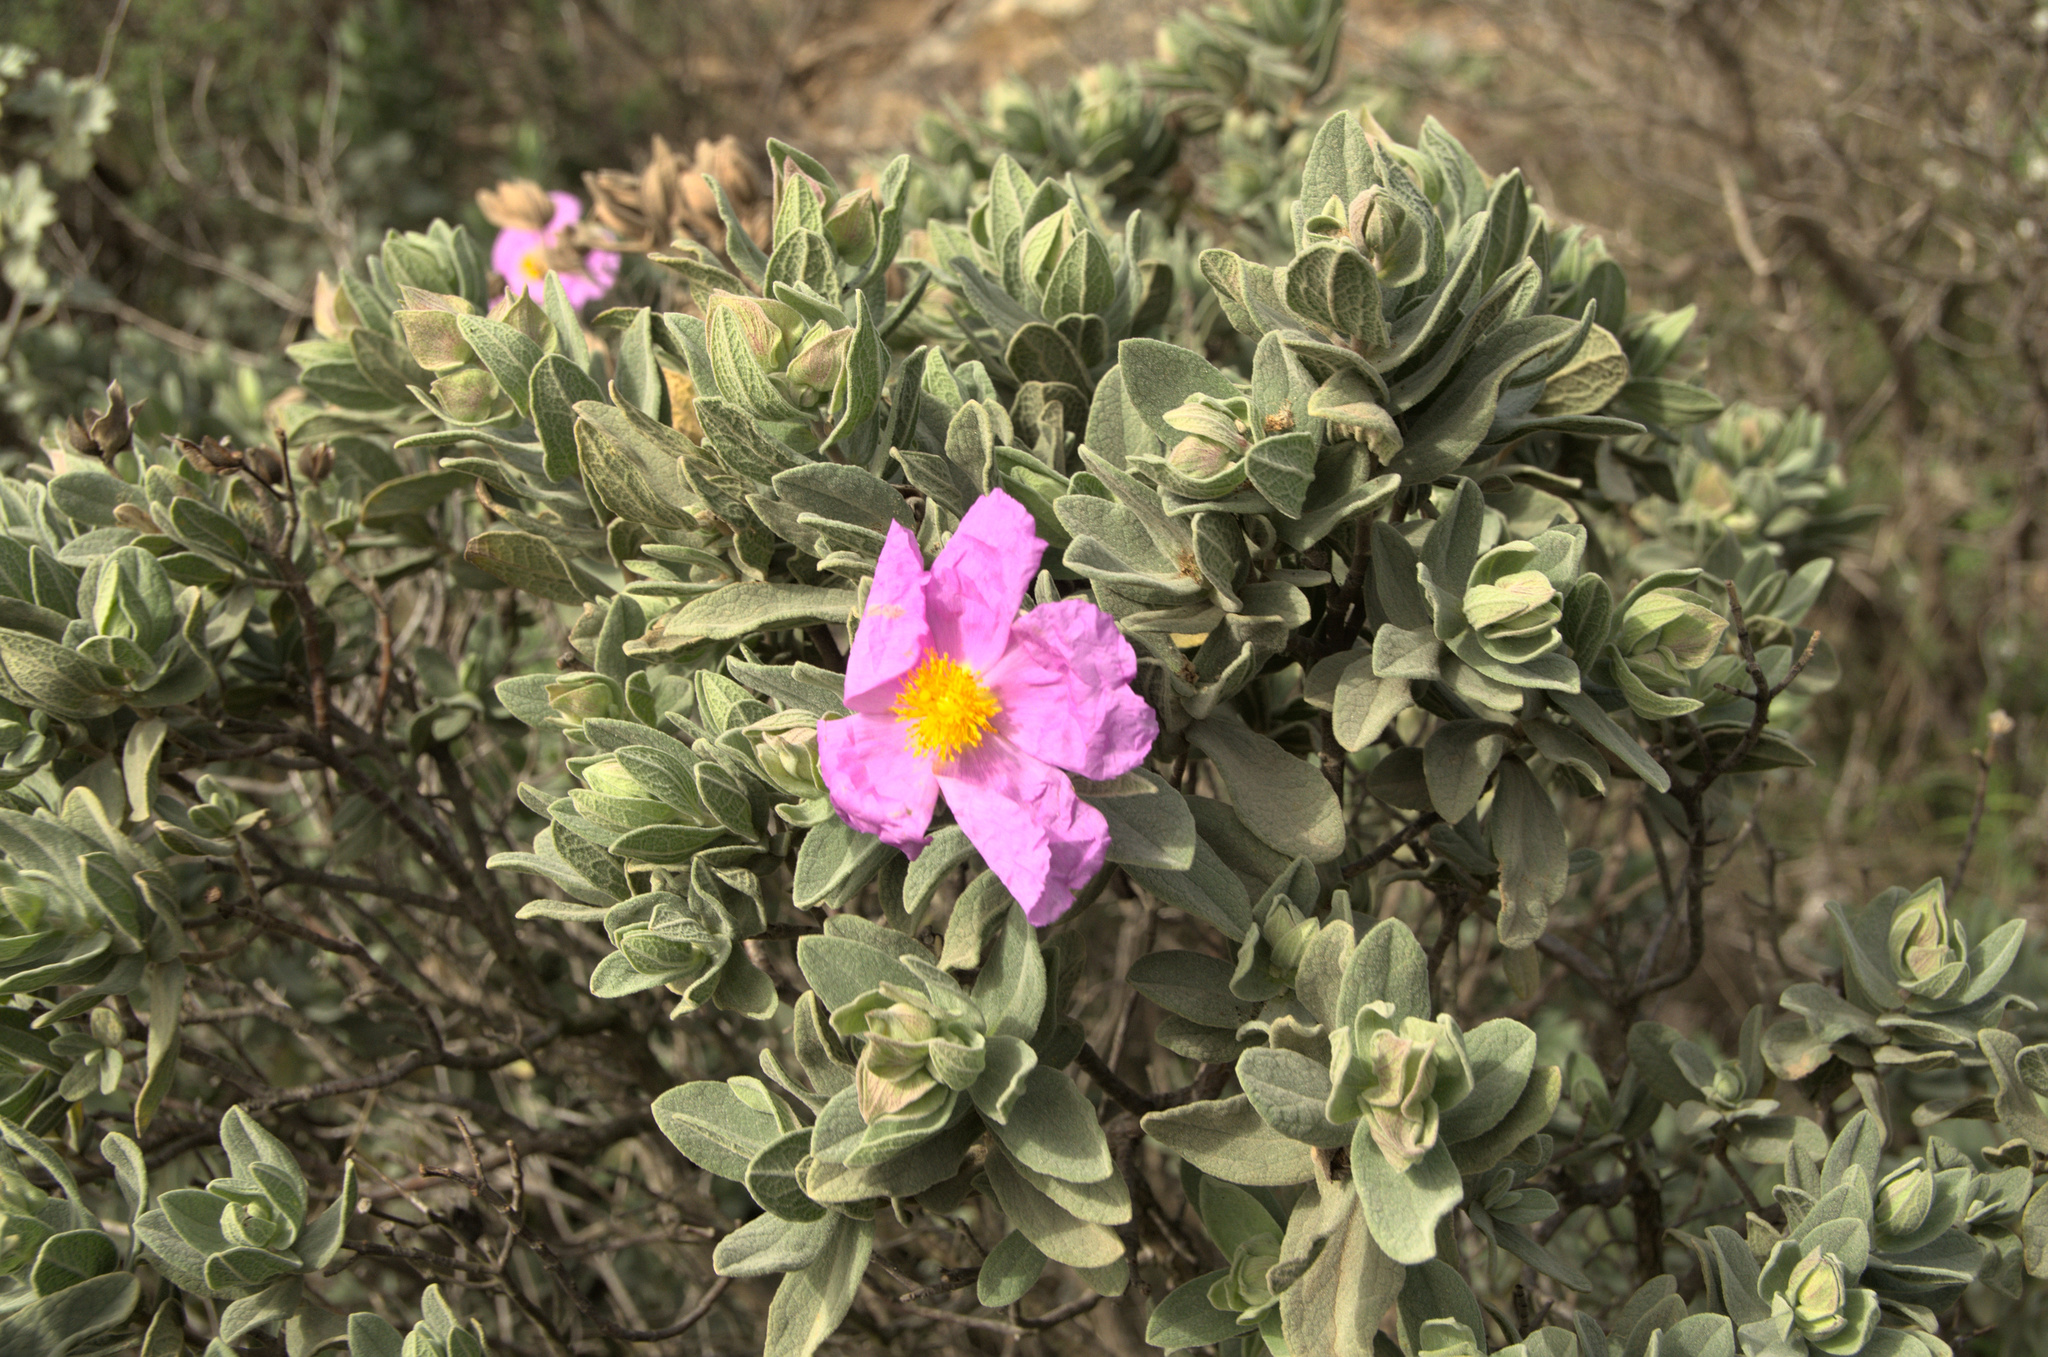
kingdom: Plantae
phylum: Tracheophyta
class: Magnoliopsida
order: Malvales
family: Cistaceae
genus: Cistus
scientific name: Cistus albidus
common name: White-leaf rock-rose
